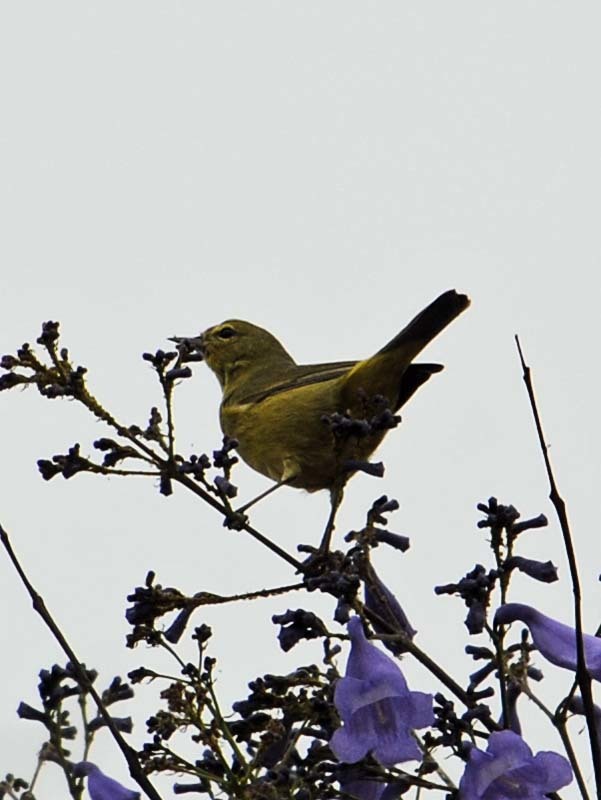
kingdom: Animalia
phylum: Chordata
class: Aves
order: Passeriformes
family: Parulidae
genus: Leiothlypis
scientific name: Leiothlypis celata
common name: Orange-crowned warbler
